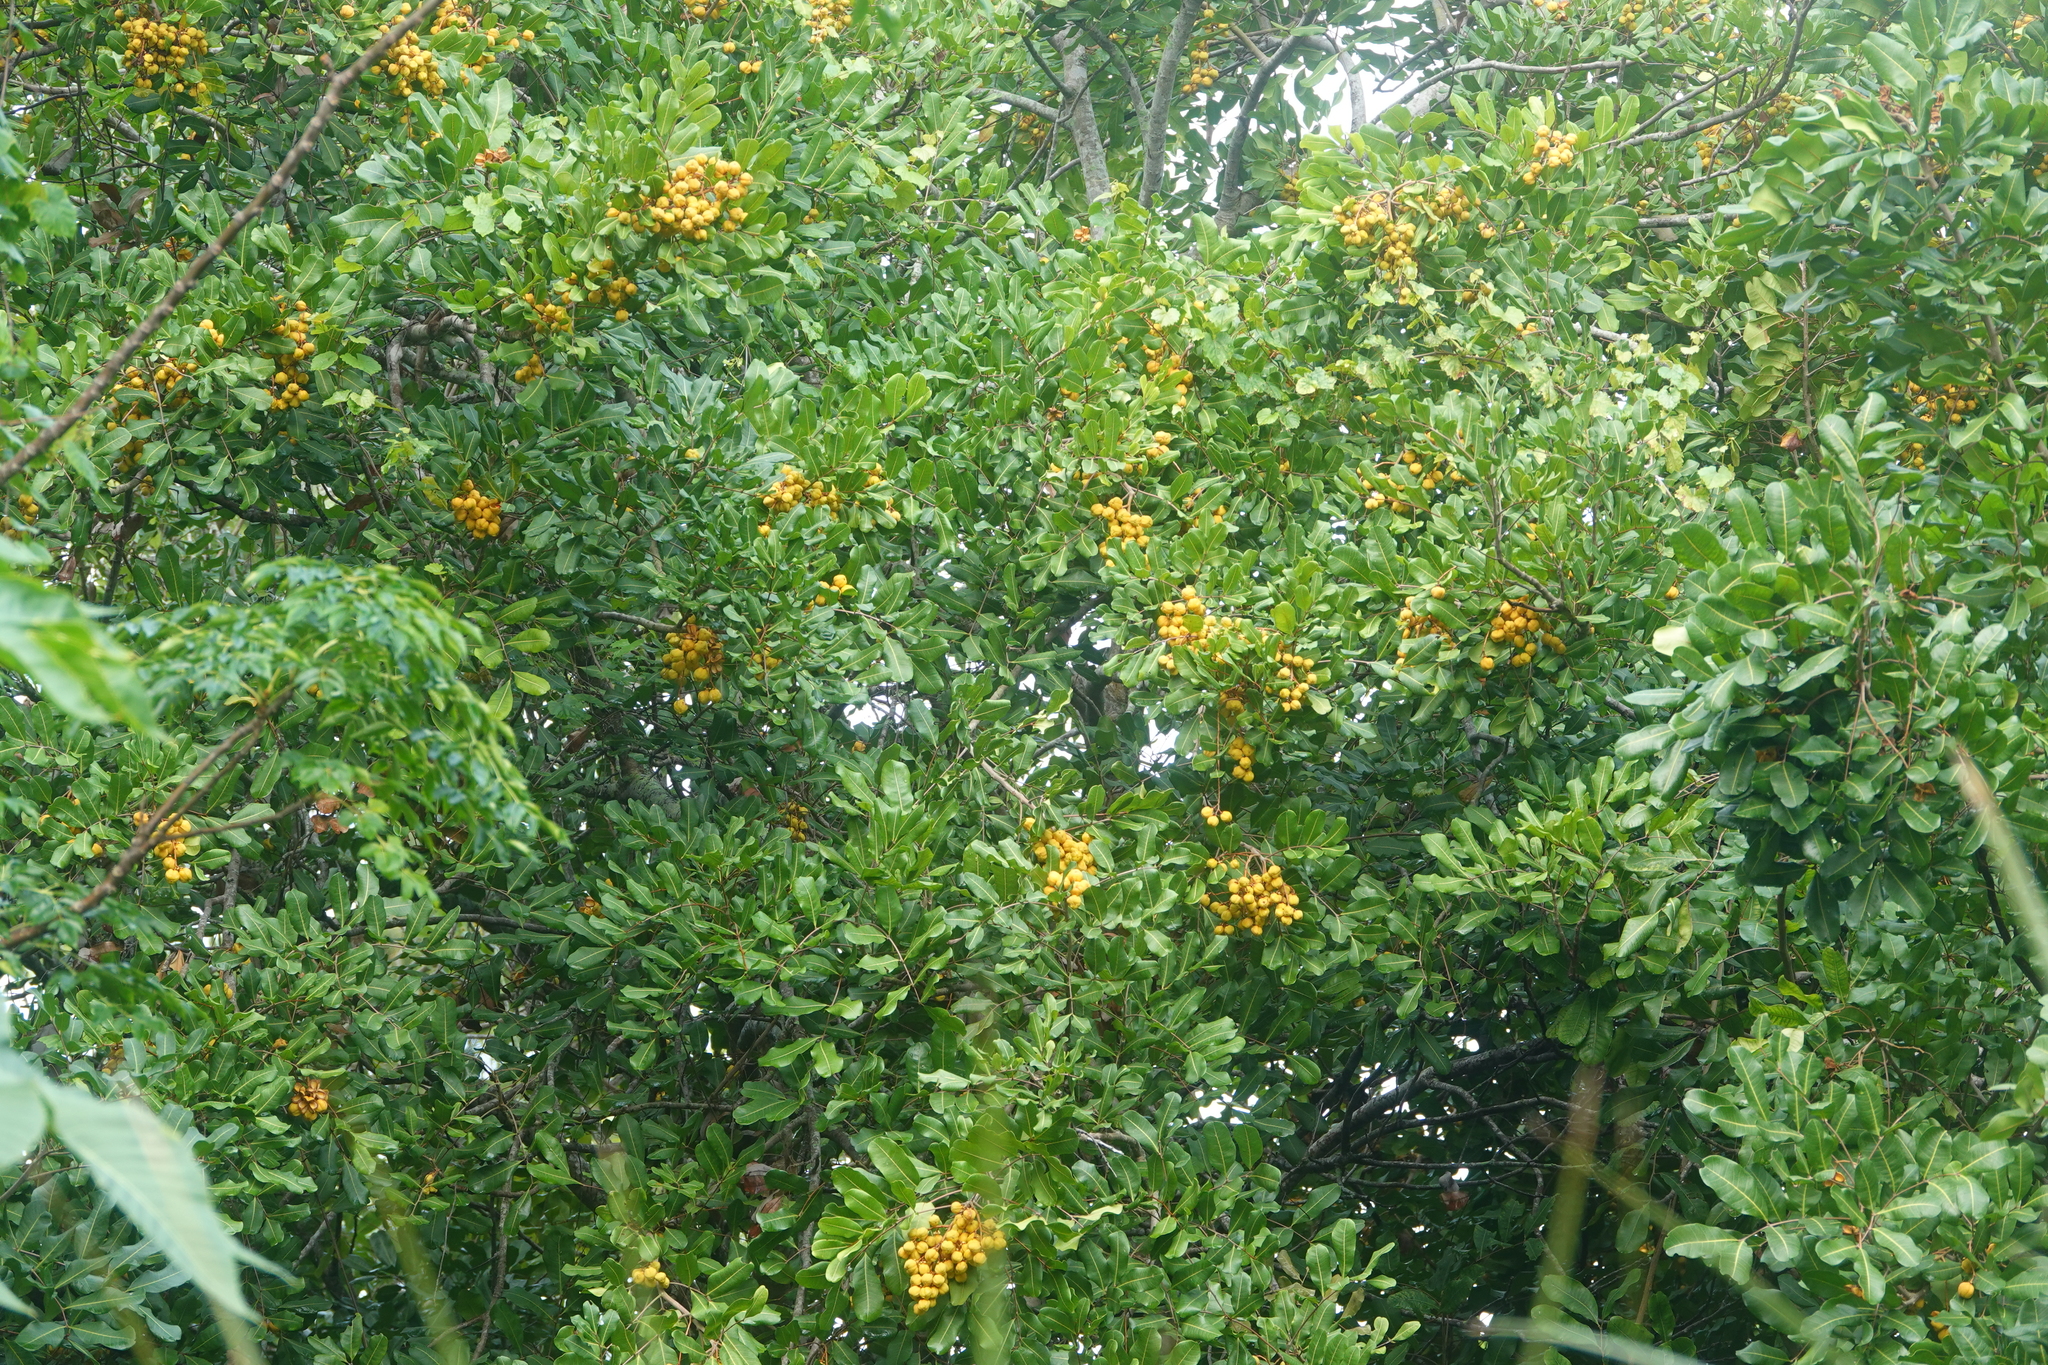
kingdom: Plantae
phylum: Tracheophyta
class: Magnoliopsida
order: Sapindales
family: Sapindaceae
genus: Cupaniopsis
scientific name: Cupaniopsis anacardioides
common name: Carrotwood
